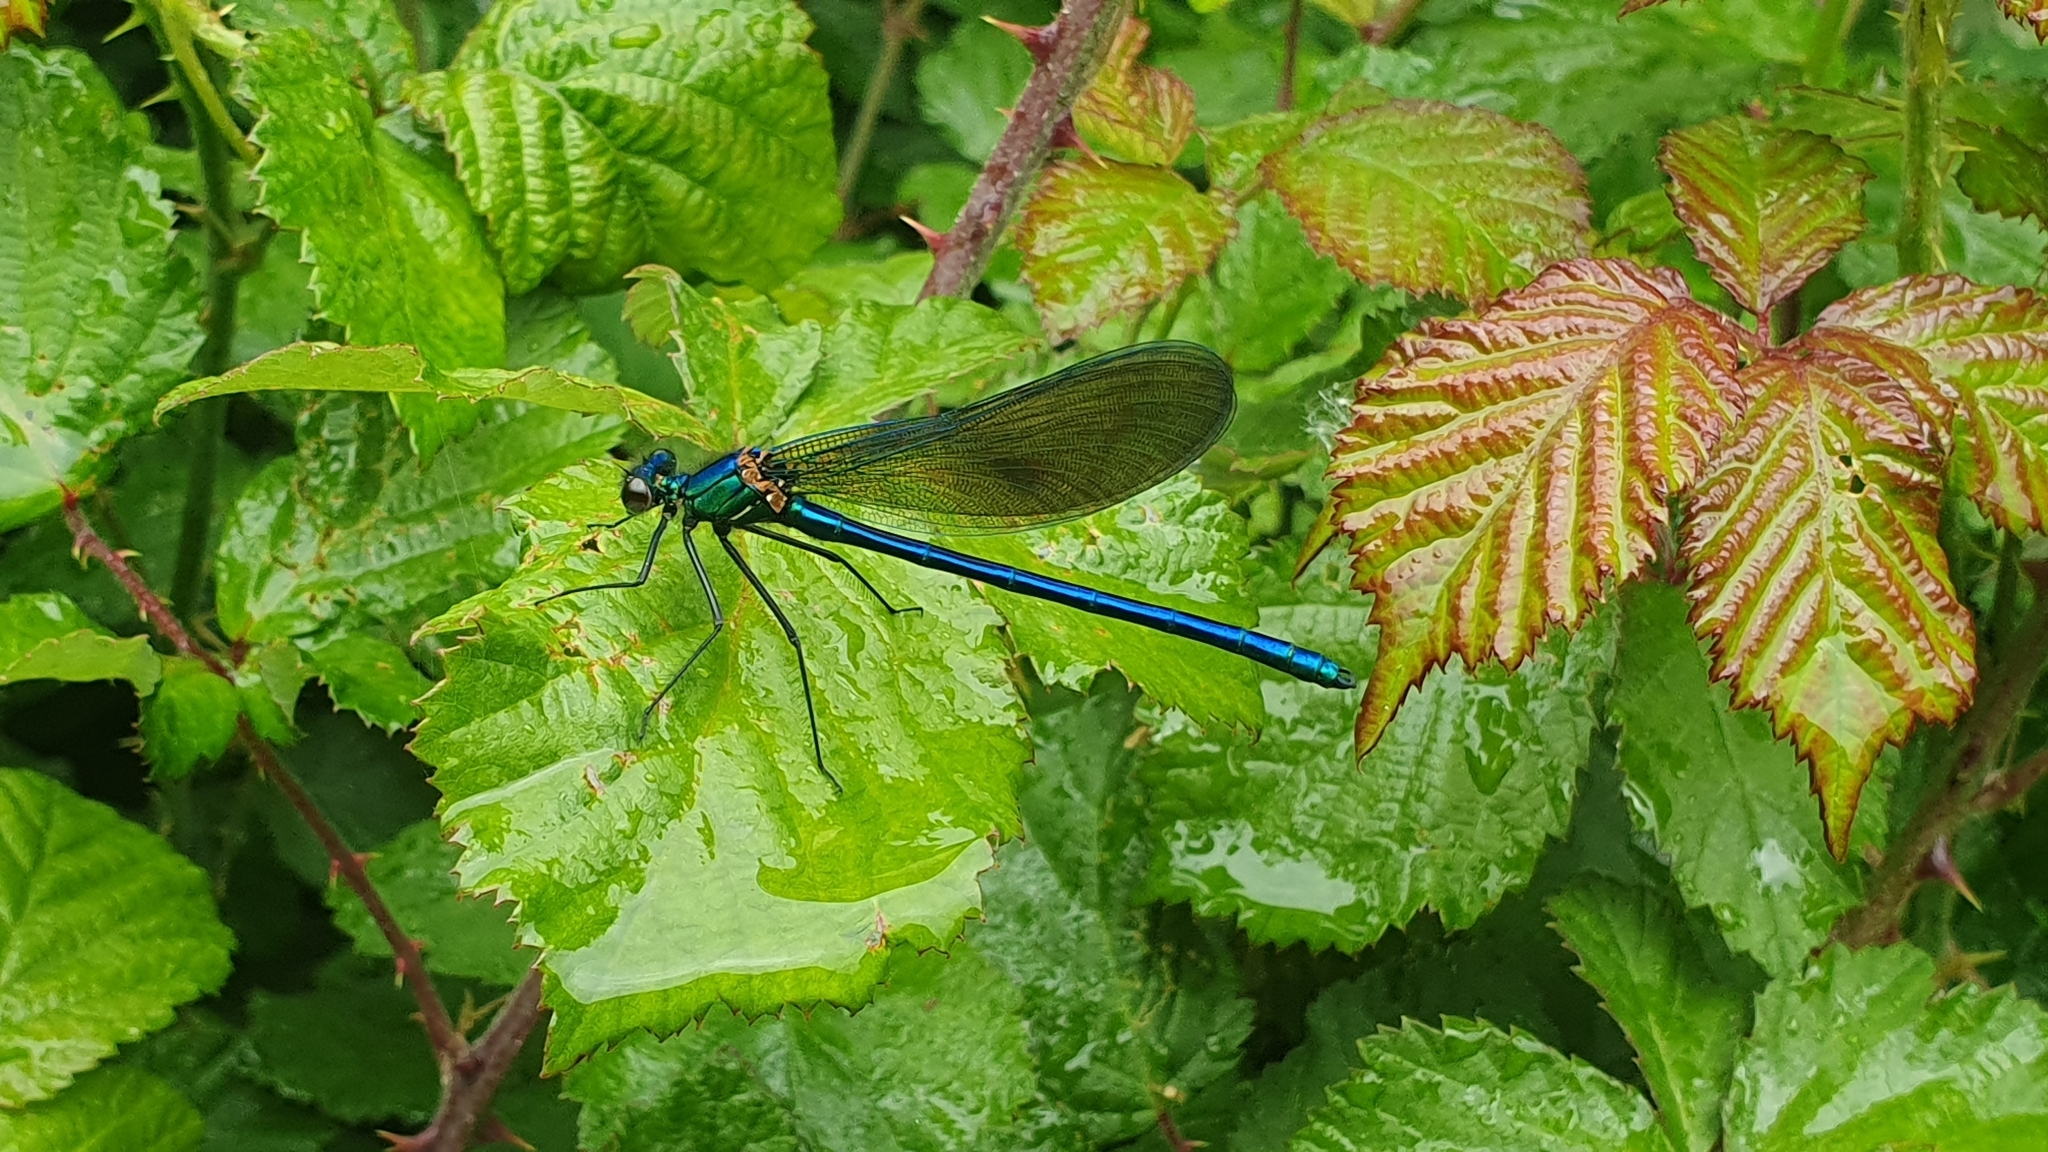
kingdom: Animalia
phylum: Arthropoda
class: Insecta
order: Odonata
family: Calopterygidae
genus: Calopteryx
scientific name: Calopteryx xanthostoma
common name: Western demoiselle
